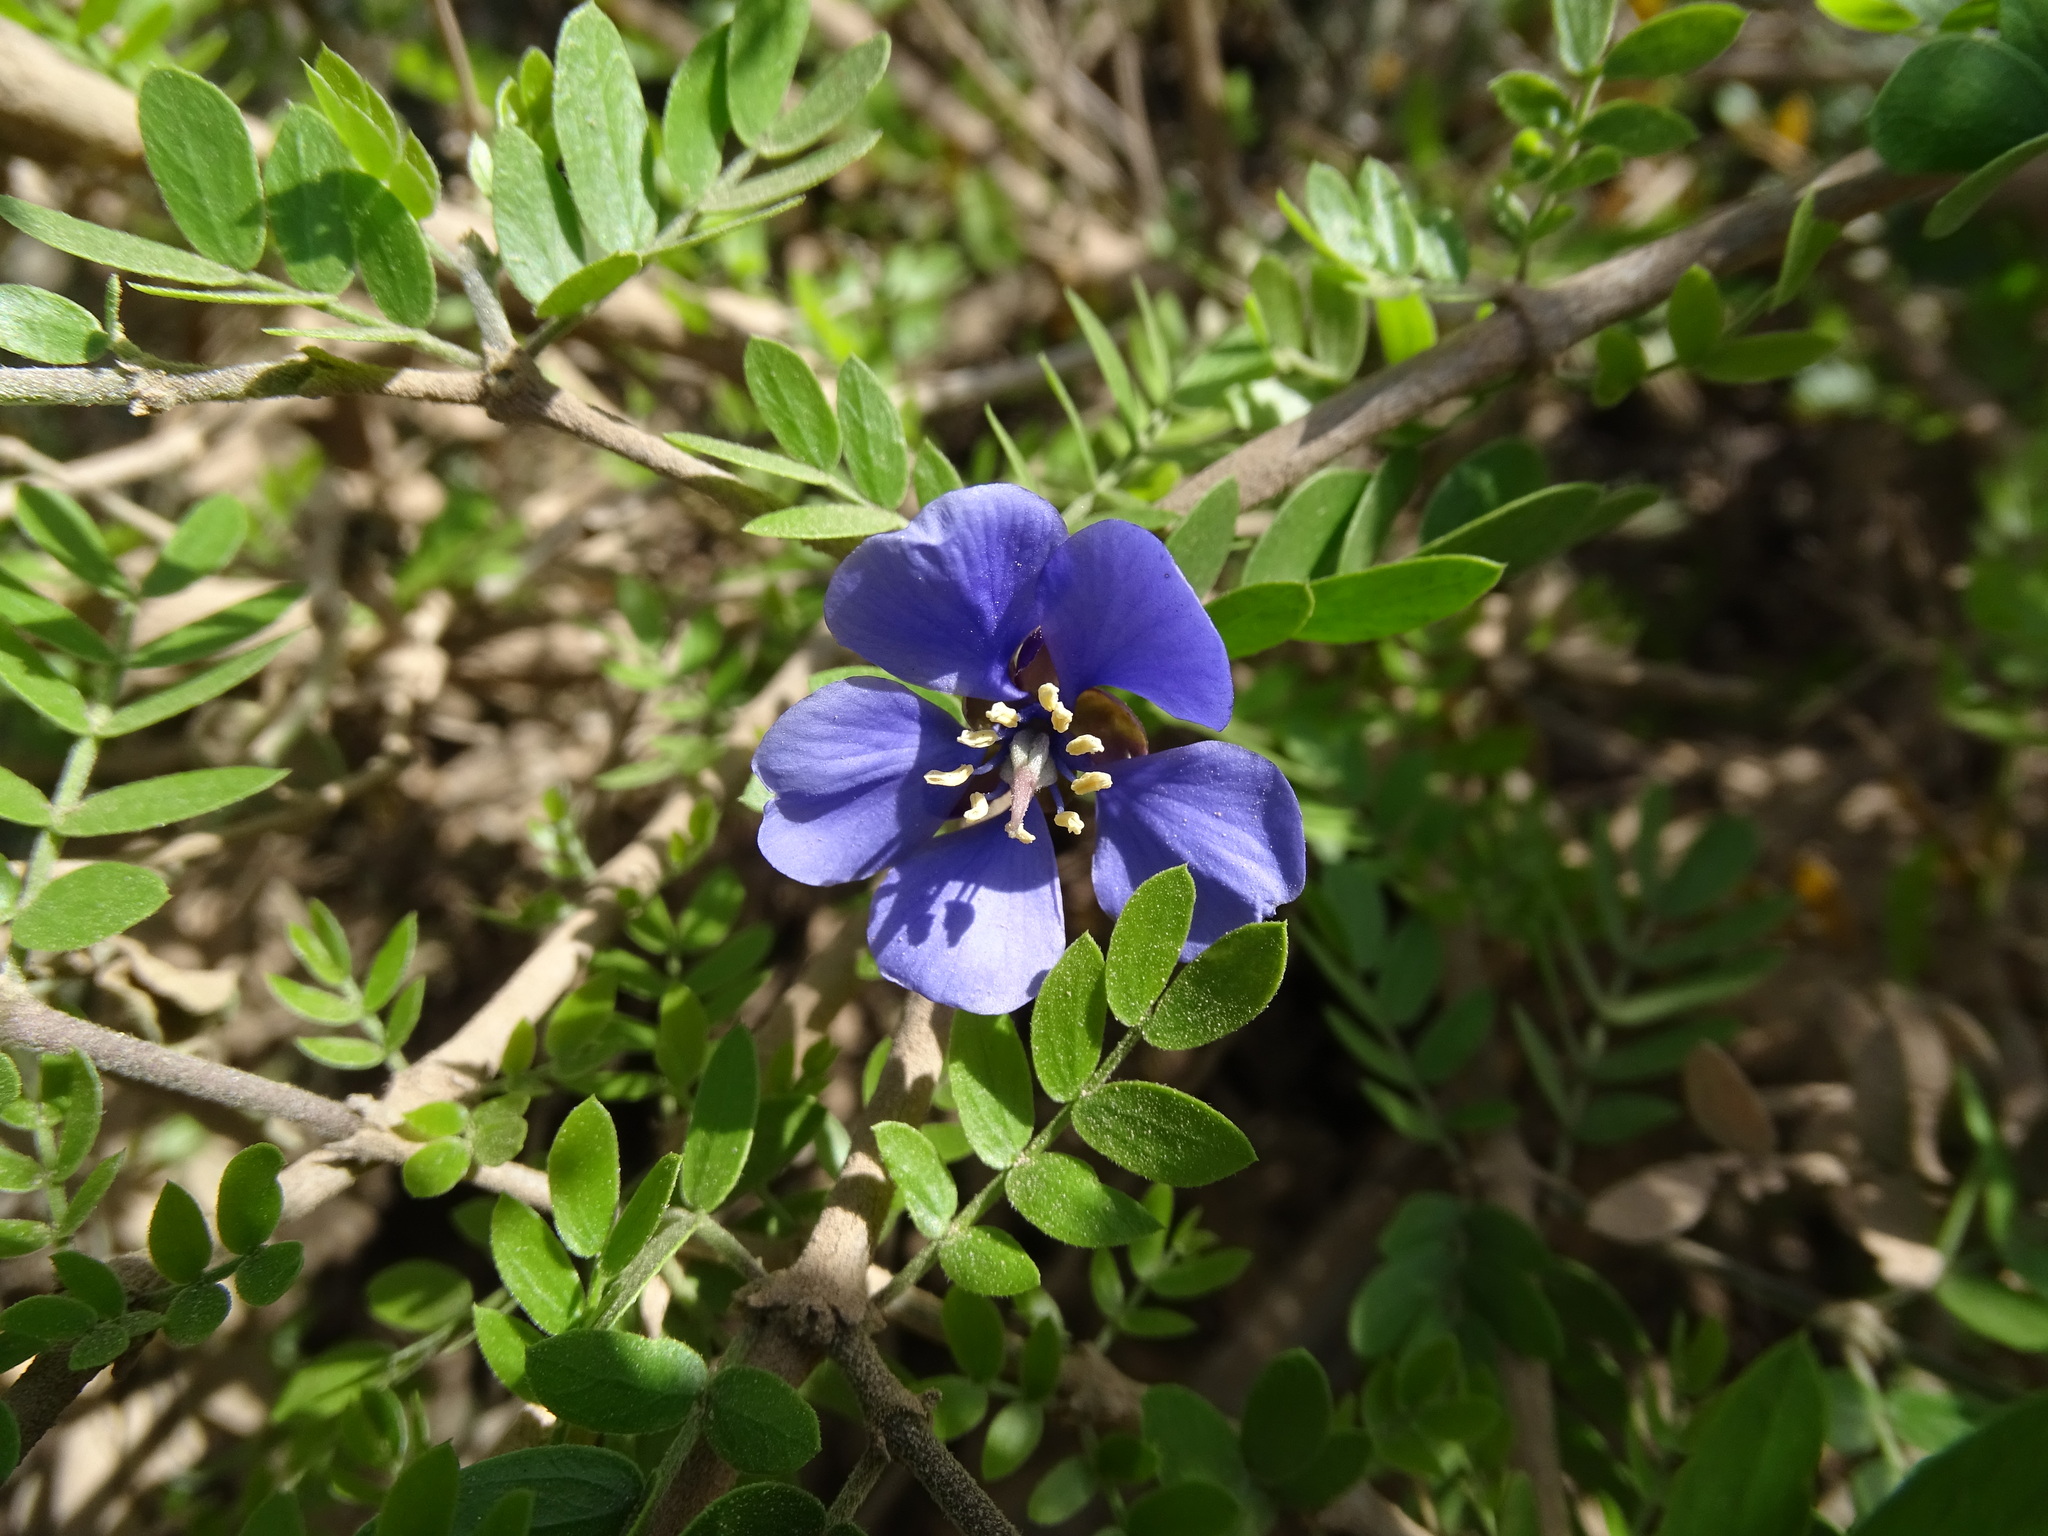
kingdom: Plantae
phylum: Tracheophyta
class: Magnoliopsida
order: Zygophyllales
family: Zygophyllaceae
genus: Guaiacum
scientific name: Guaiacum coulteri
